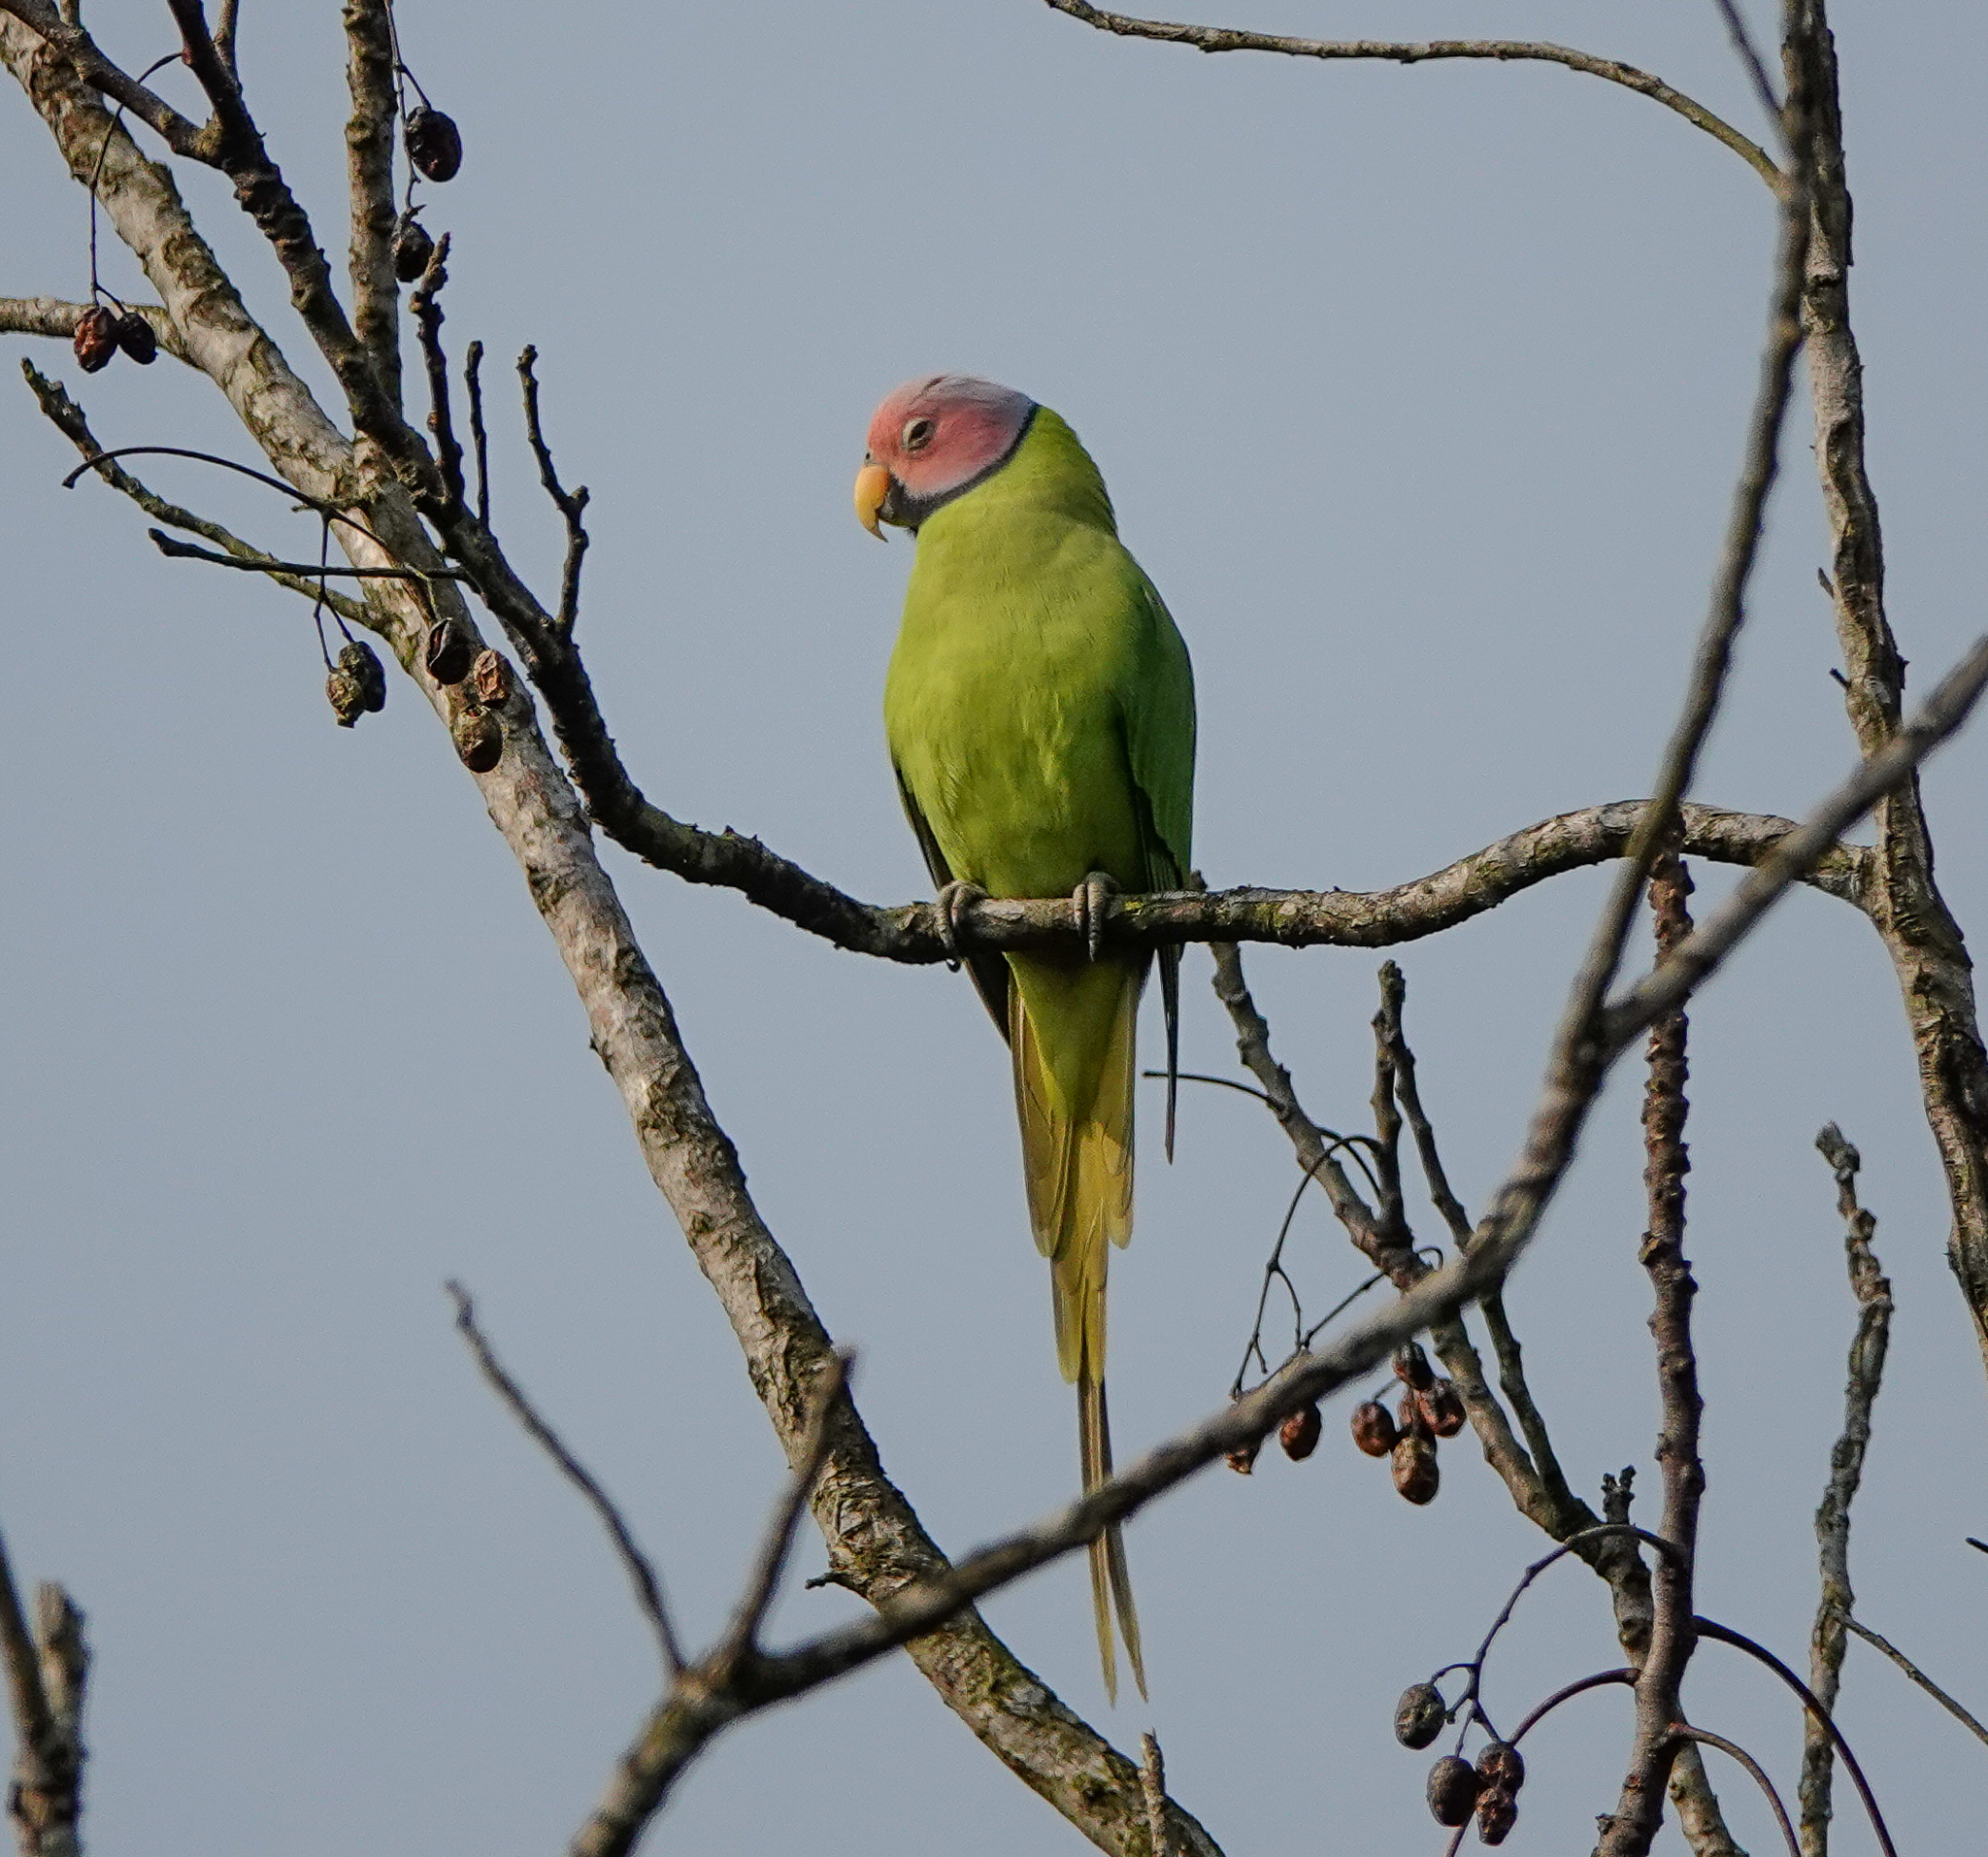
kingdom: Animalia
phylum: Chordata
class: Aves
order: Psittaciformes
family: Psittacidae
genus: Psittacula
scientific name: Psittacula roseata
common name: Blossom-headed parakeet
